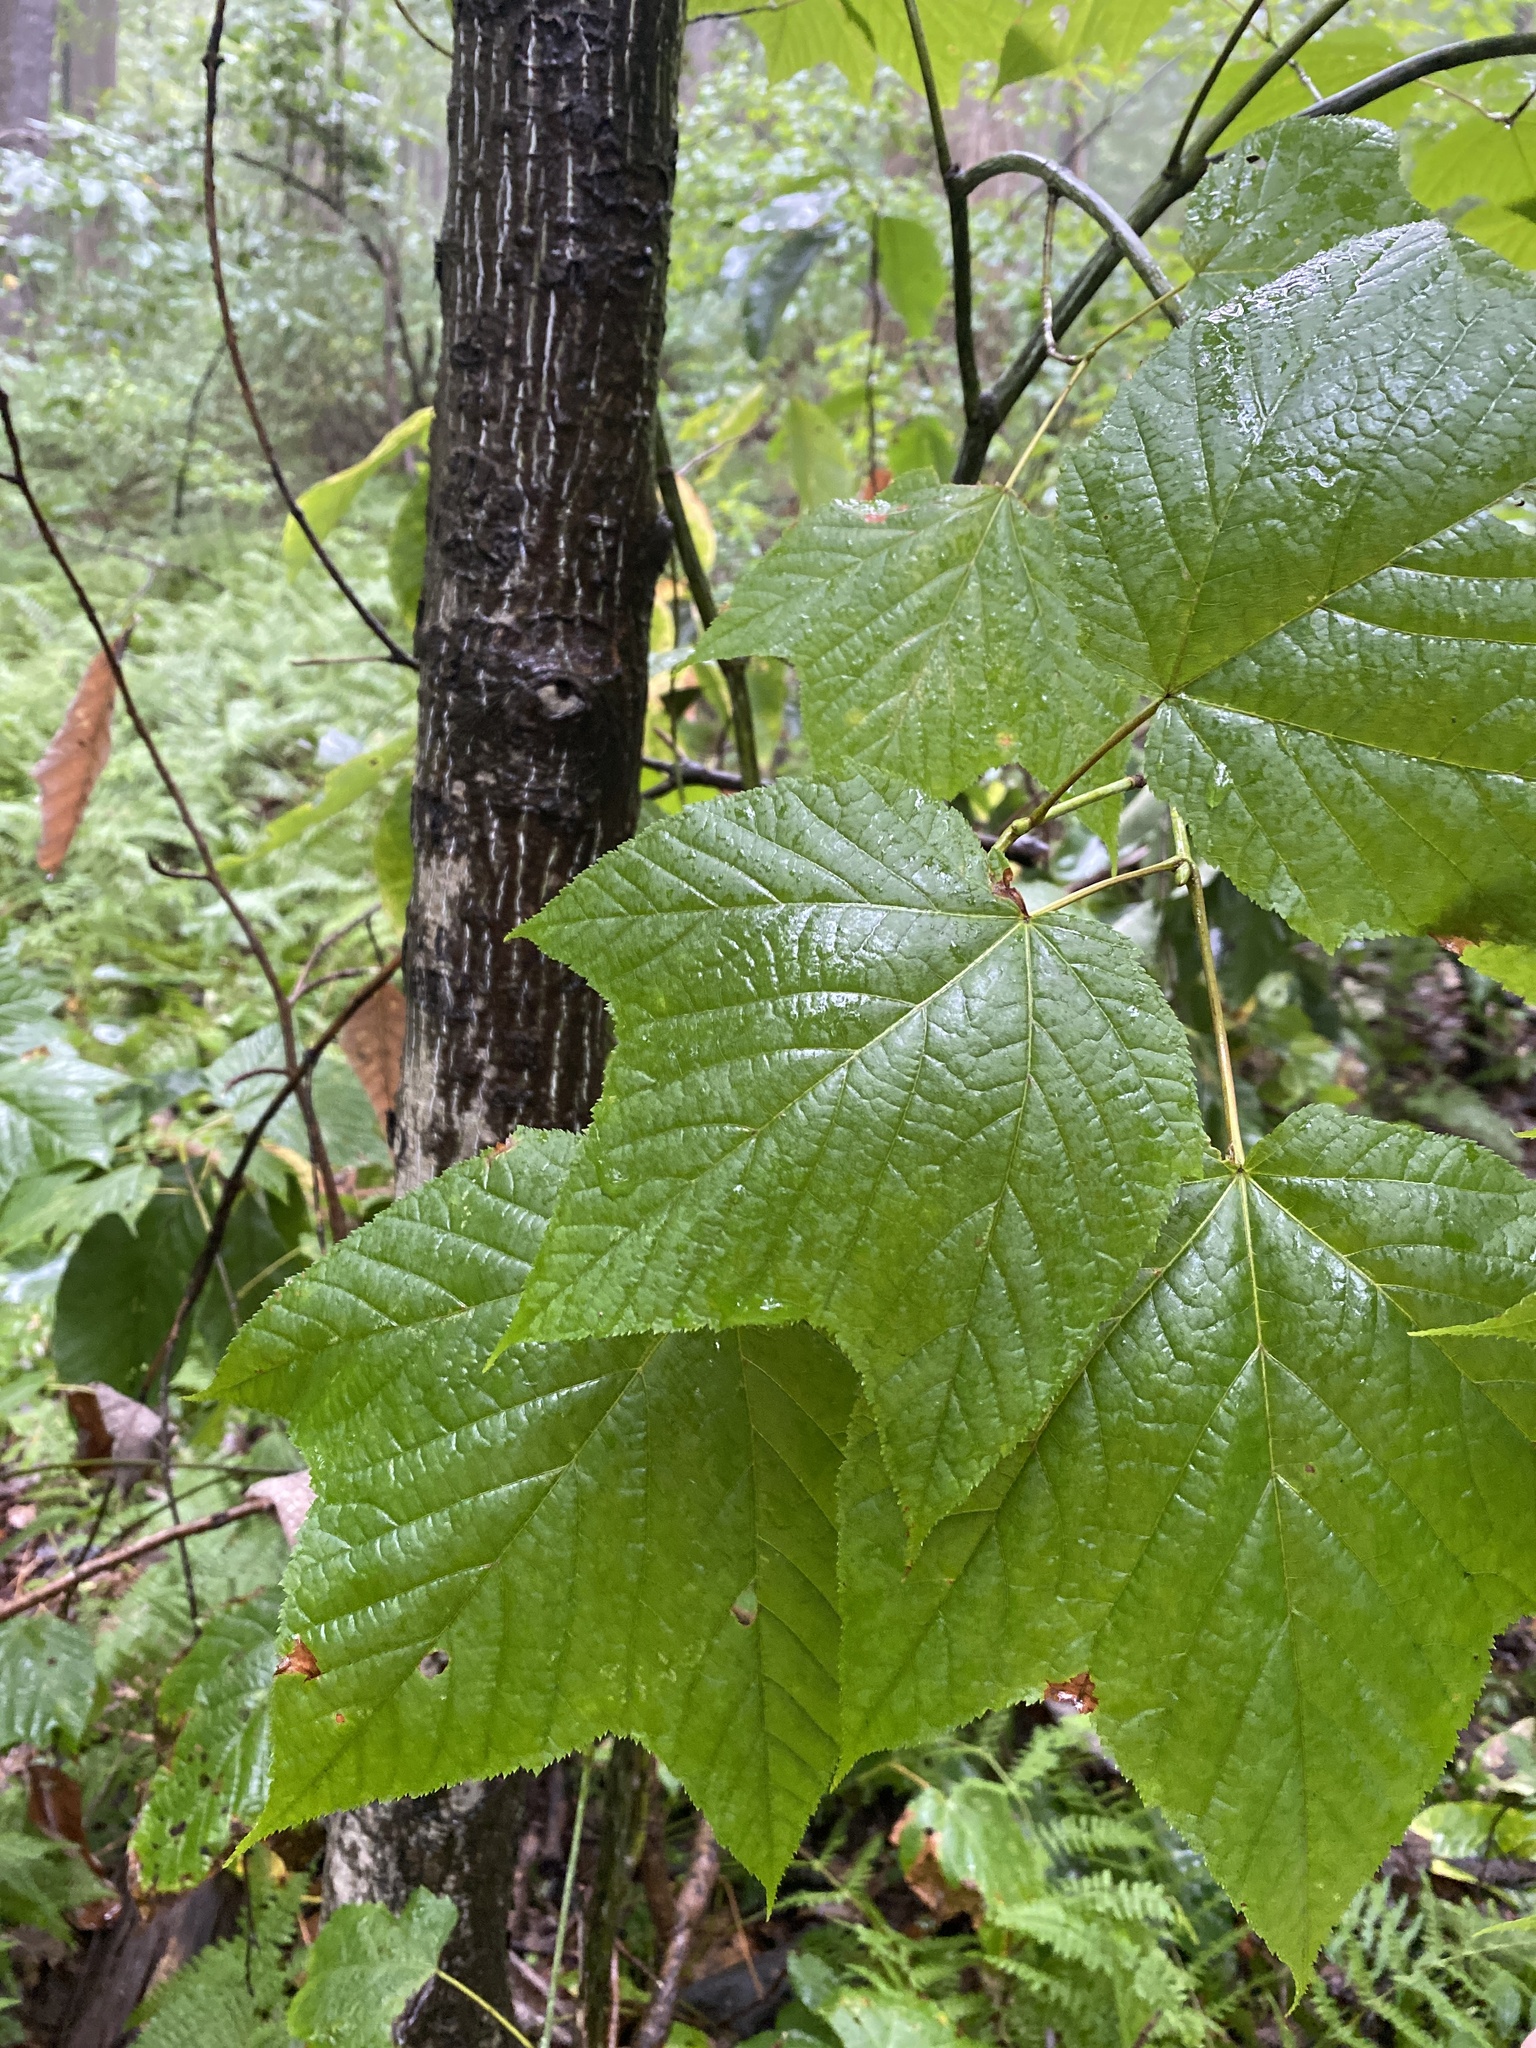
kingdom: Plantae
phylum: Tracheophyta
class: Magnoliopsida
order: Sapindales
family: Sapindaceae
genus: Acer
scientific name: Acer pensylvanicum
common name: Moosewood
